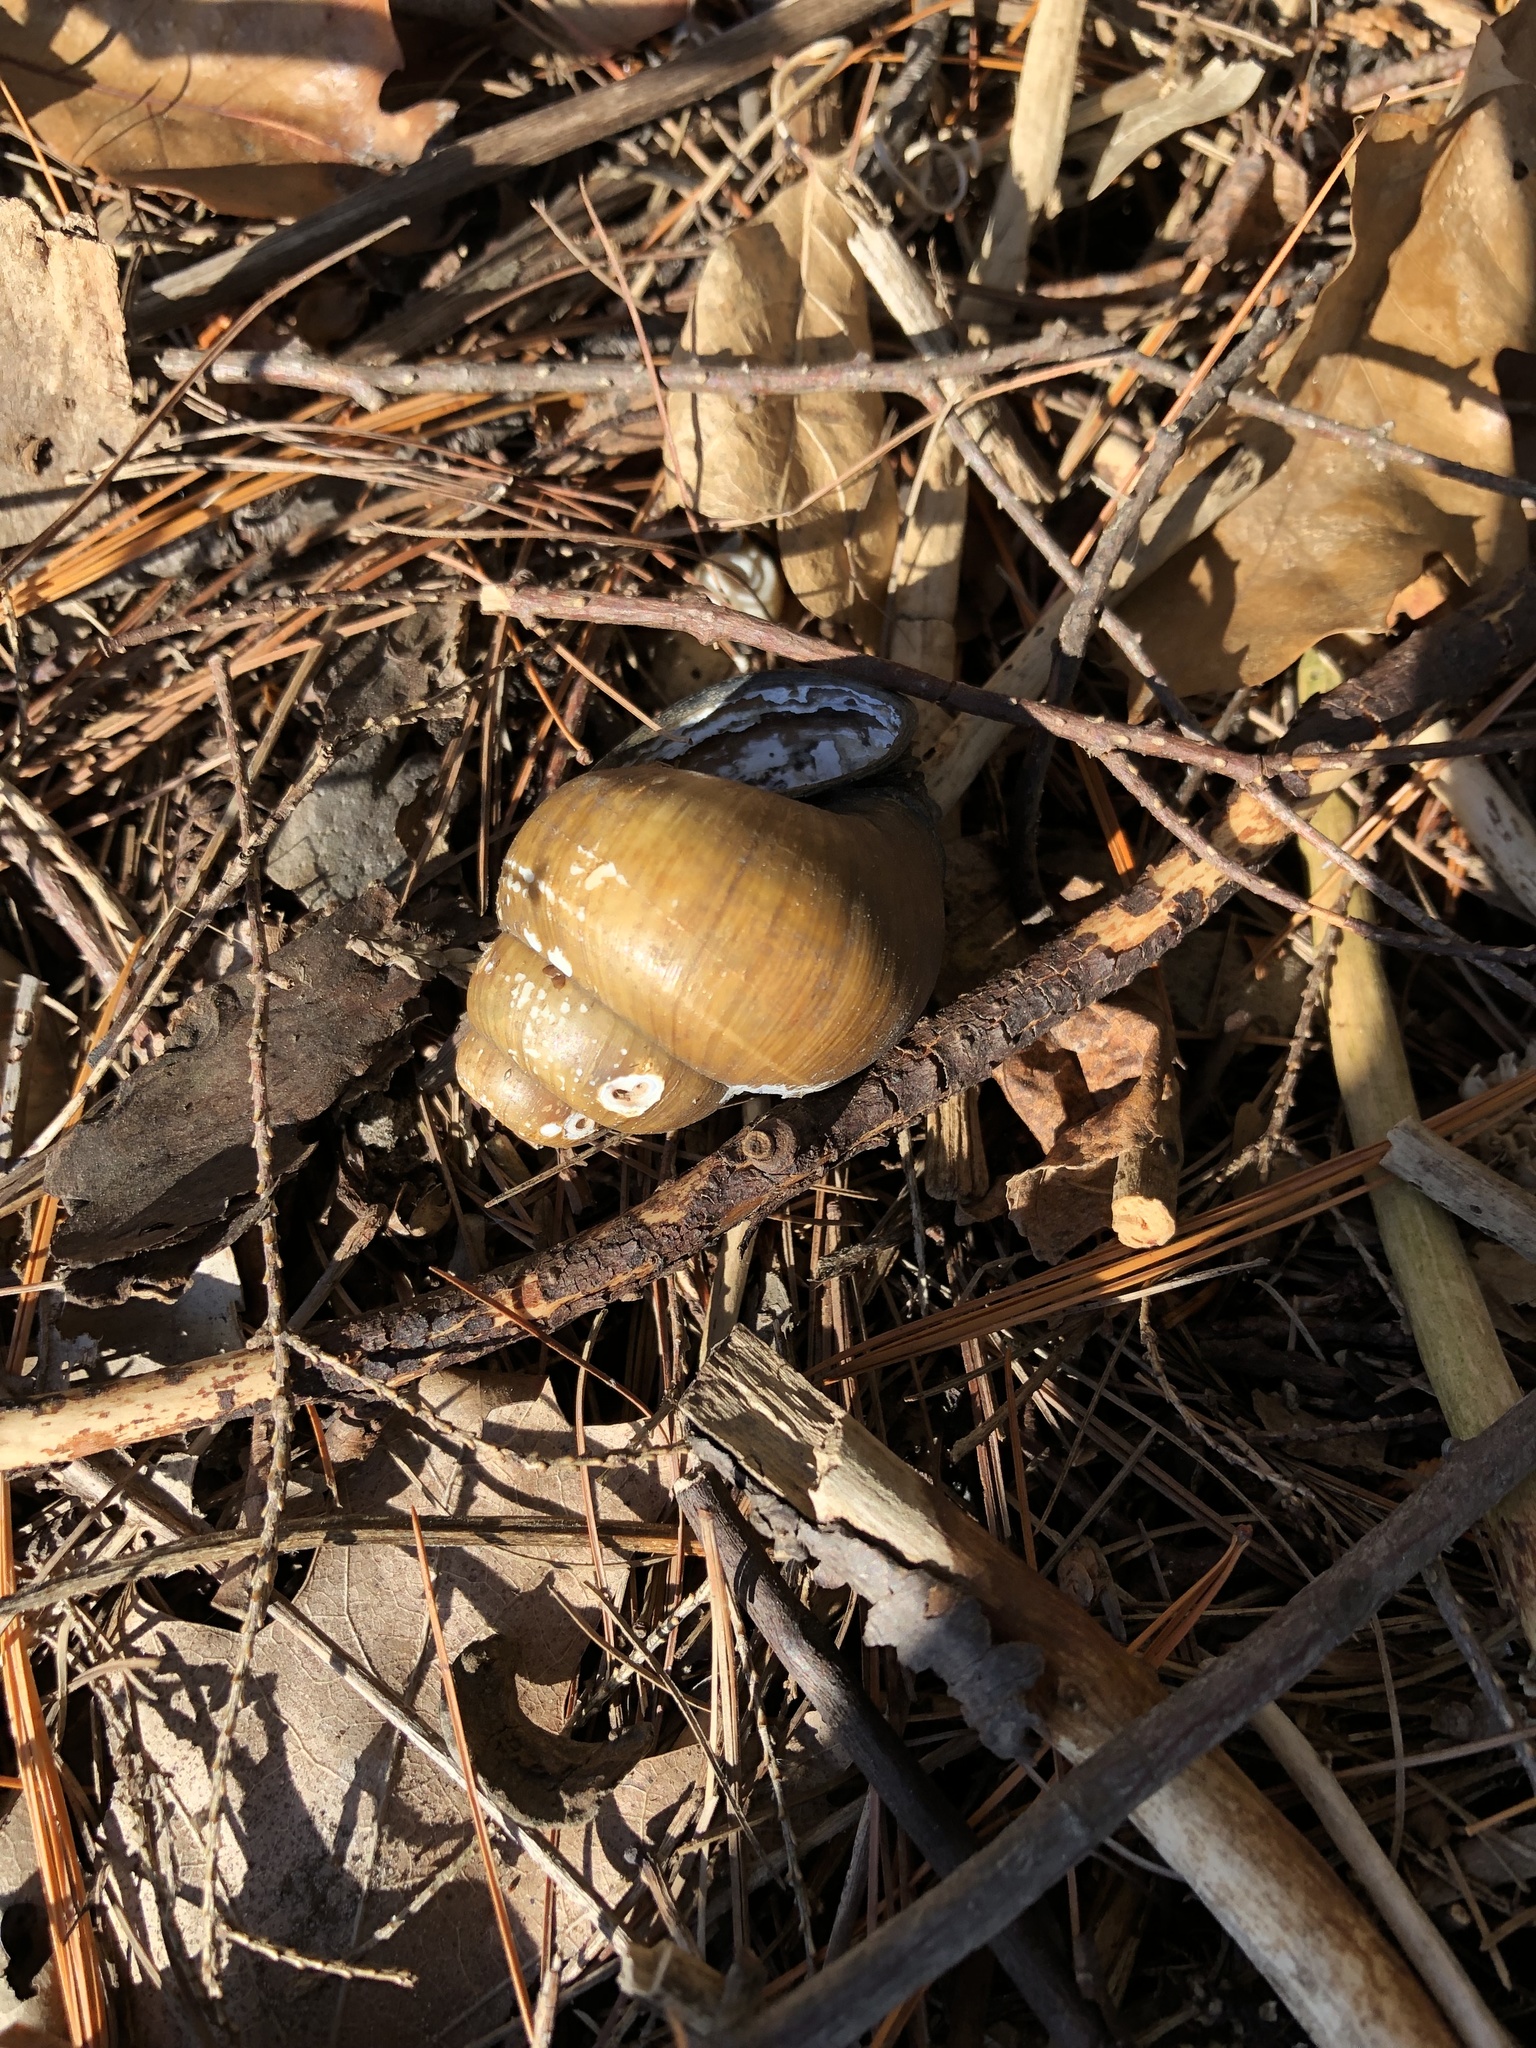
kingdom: Animalia
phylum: Mollusca
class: Gastropoda
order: Architaenioglossa
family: Viviparidae
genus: Cipangopaludina
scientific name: Cipangopaludina chinensis
